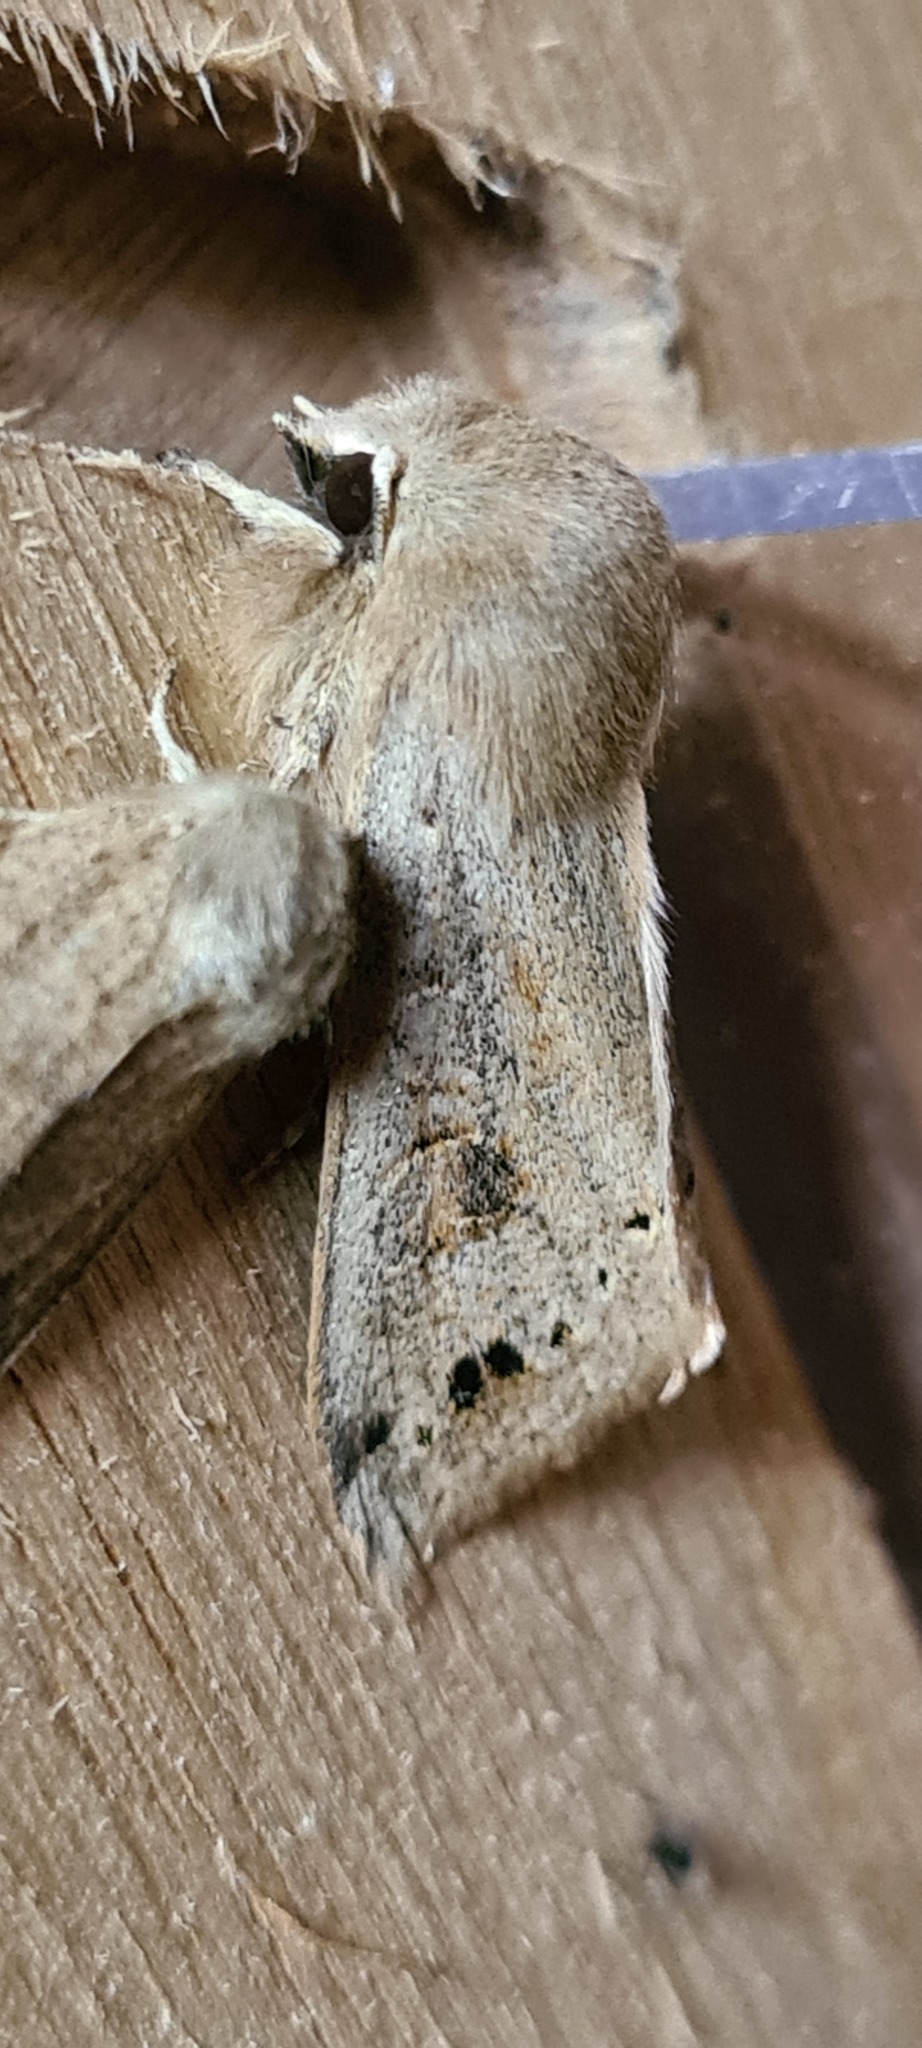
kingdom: Animalia
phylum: Arthropoda
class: Insecta
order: Lepidoptera
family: Noctuidae
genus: Anorthoa
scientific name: Anorthoa munda
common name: Twin-spotted quaker
